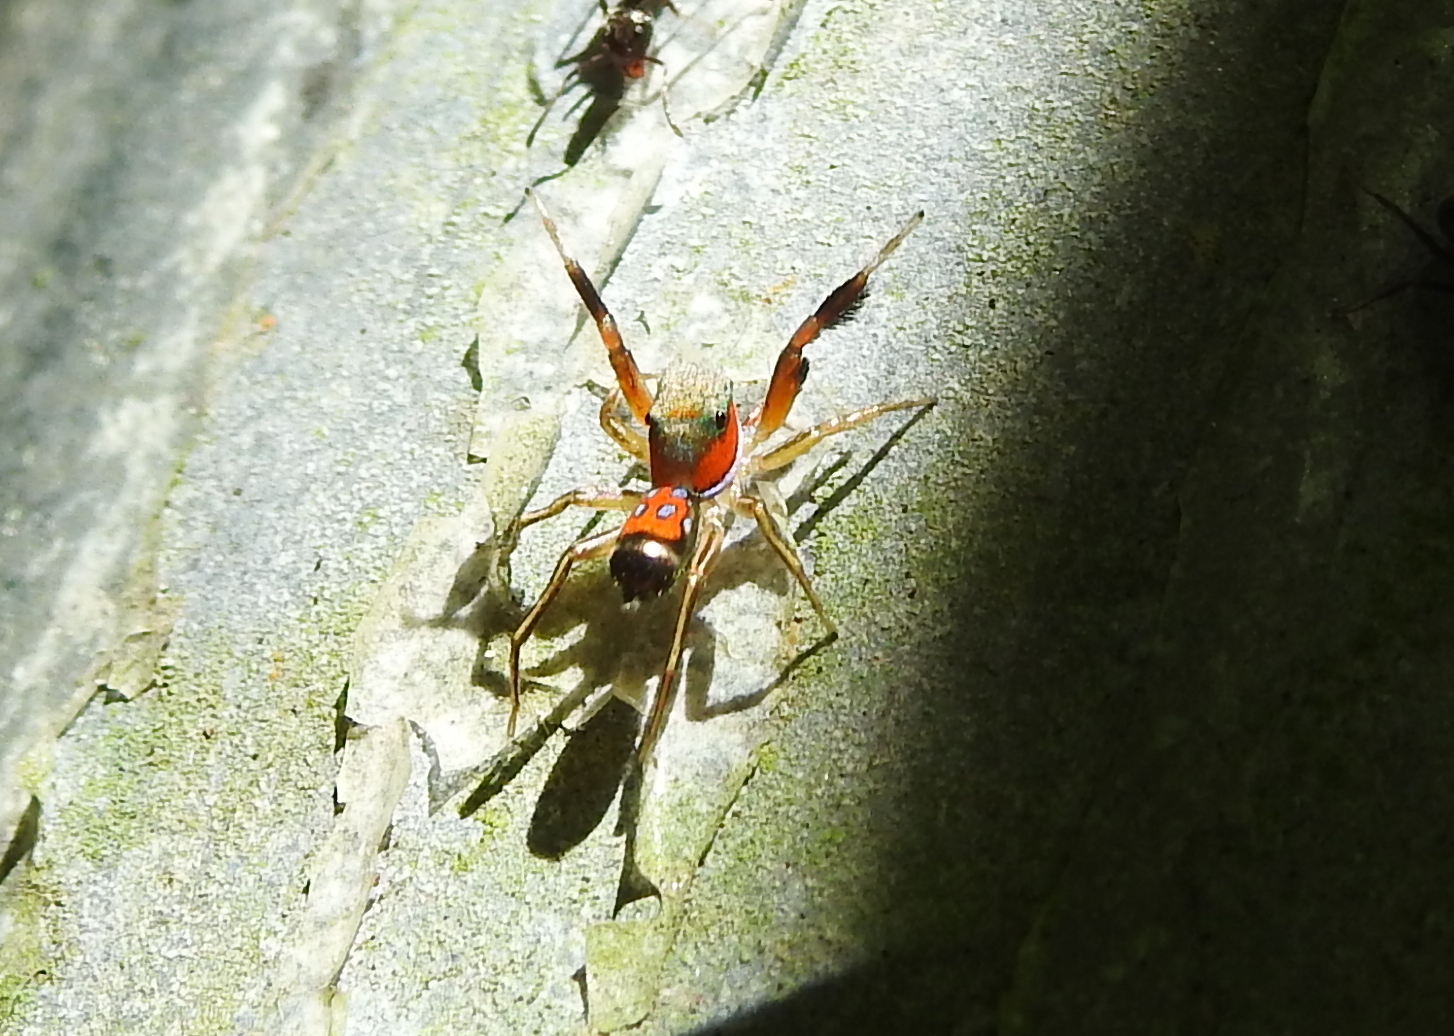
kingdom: Animalia
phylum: Arthropoda
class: Arachnida
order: Araneae
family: Salticidae
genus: Siler
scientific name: Siler semiglaucus
